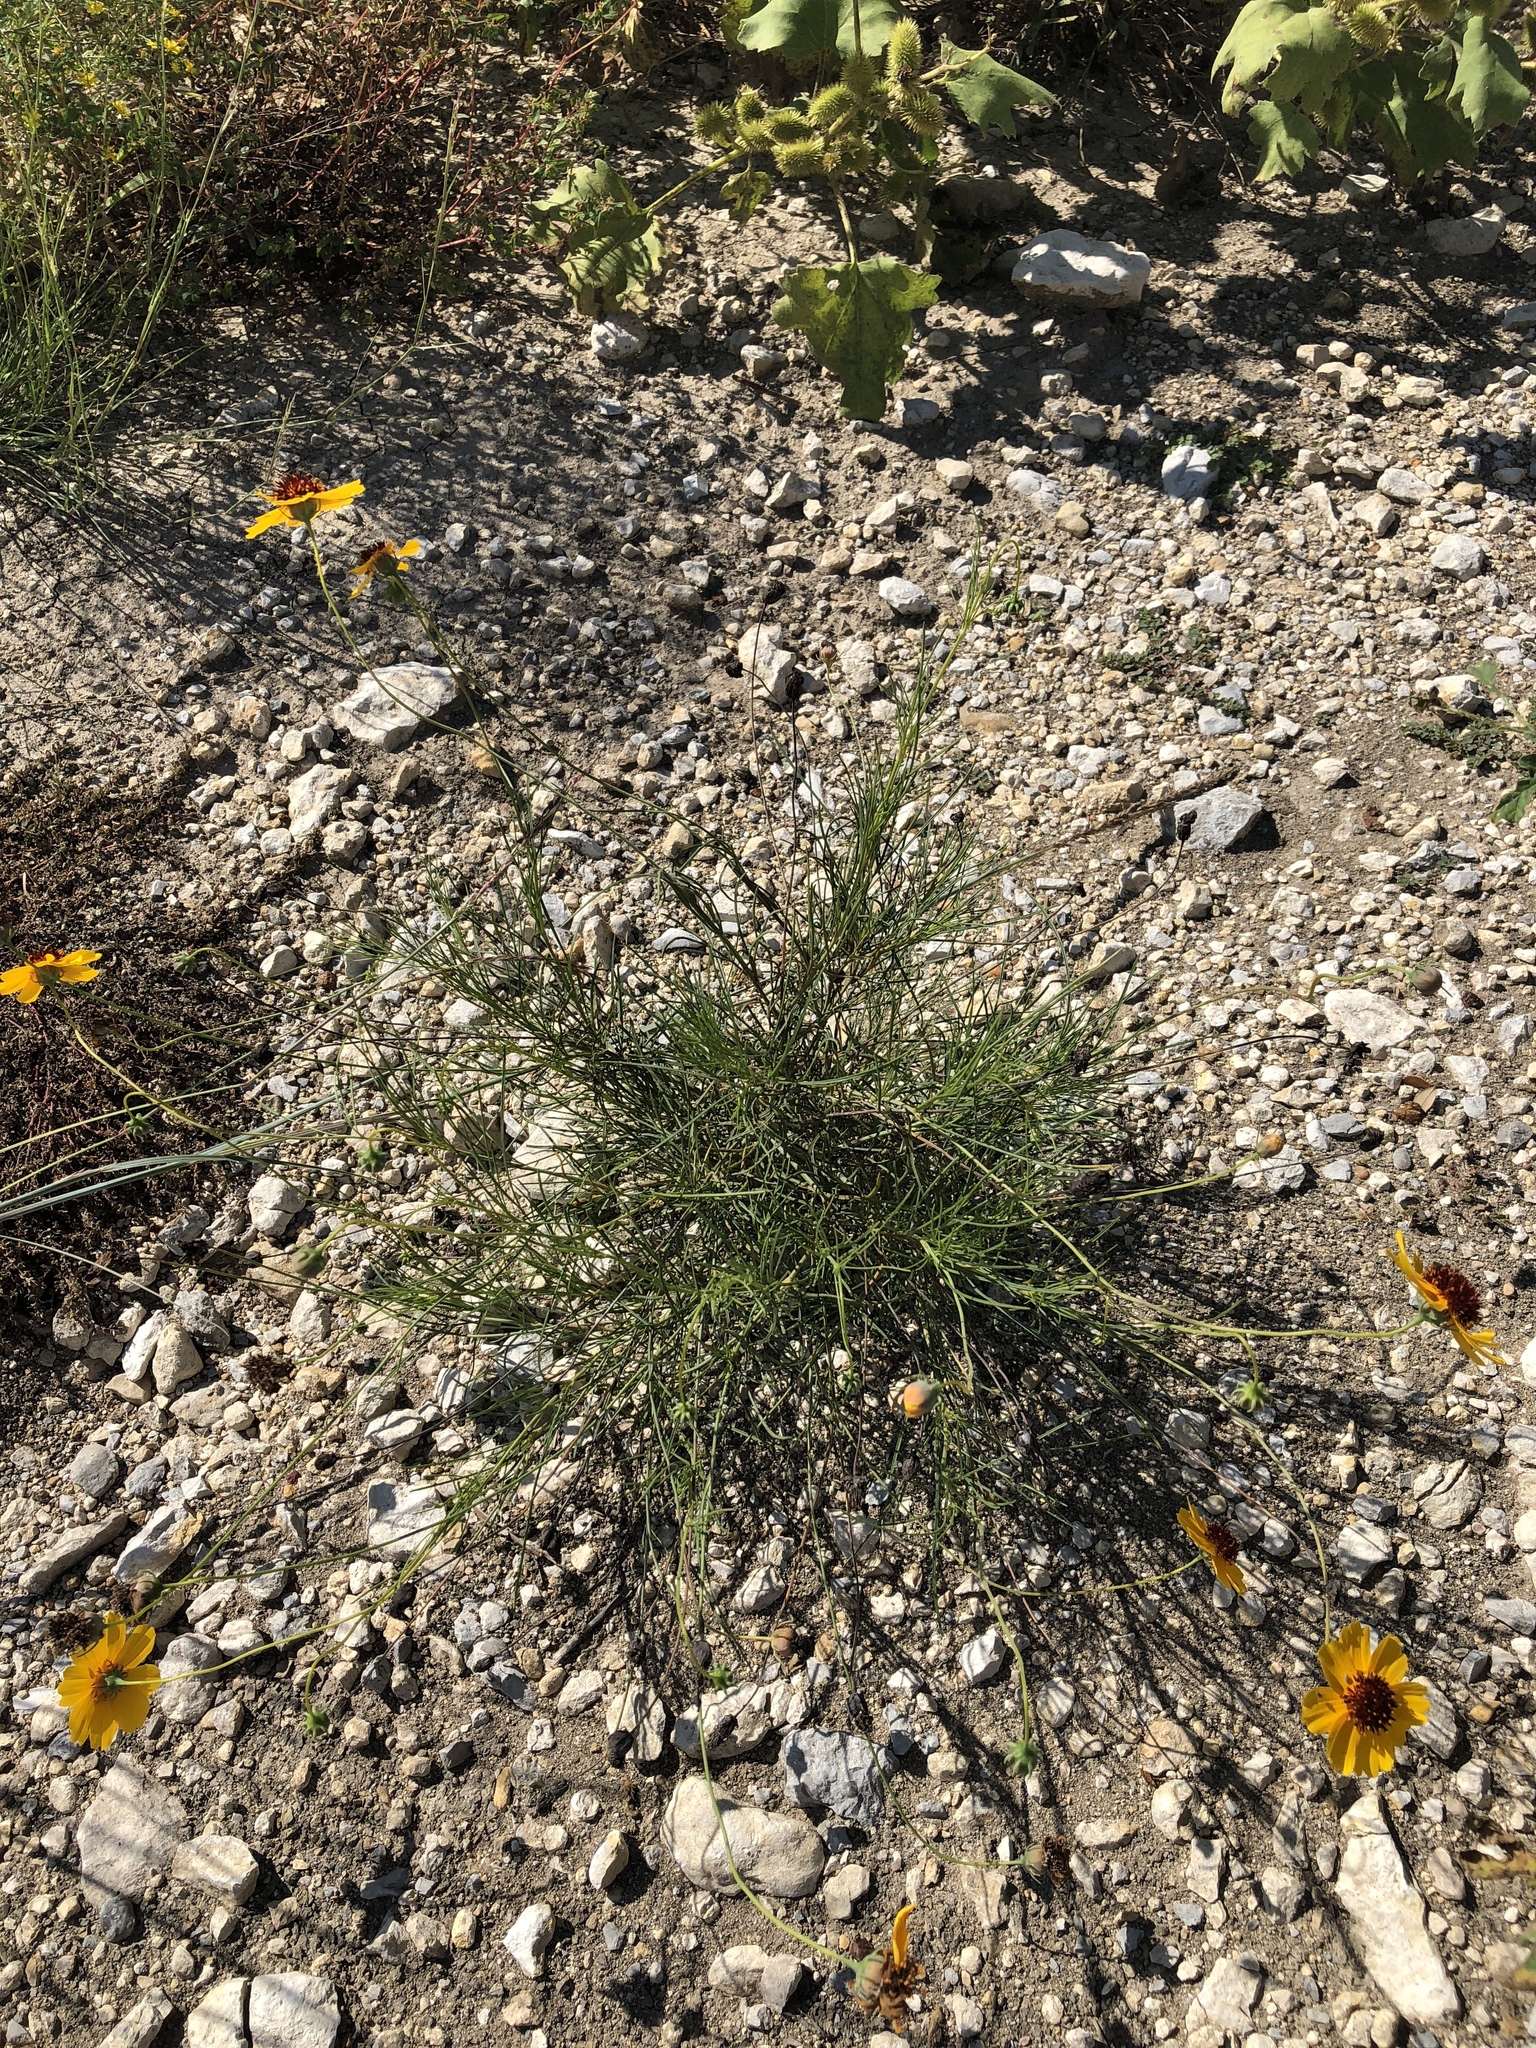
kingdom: Plantae
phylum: Tracheophyta
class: Magnoliopsida
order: Asterales
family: Asteraceae
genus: Thelesperma
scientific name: Thelesperma filifolium
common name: Stiff greenthread
